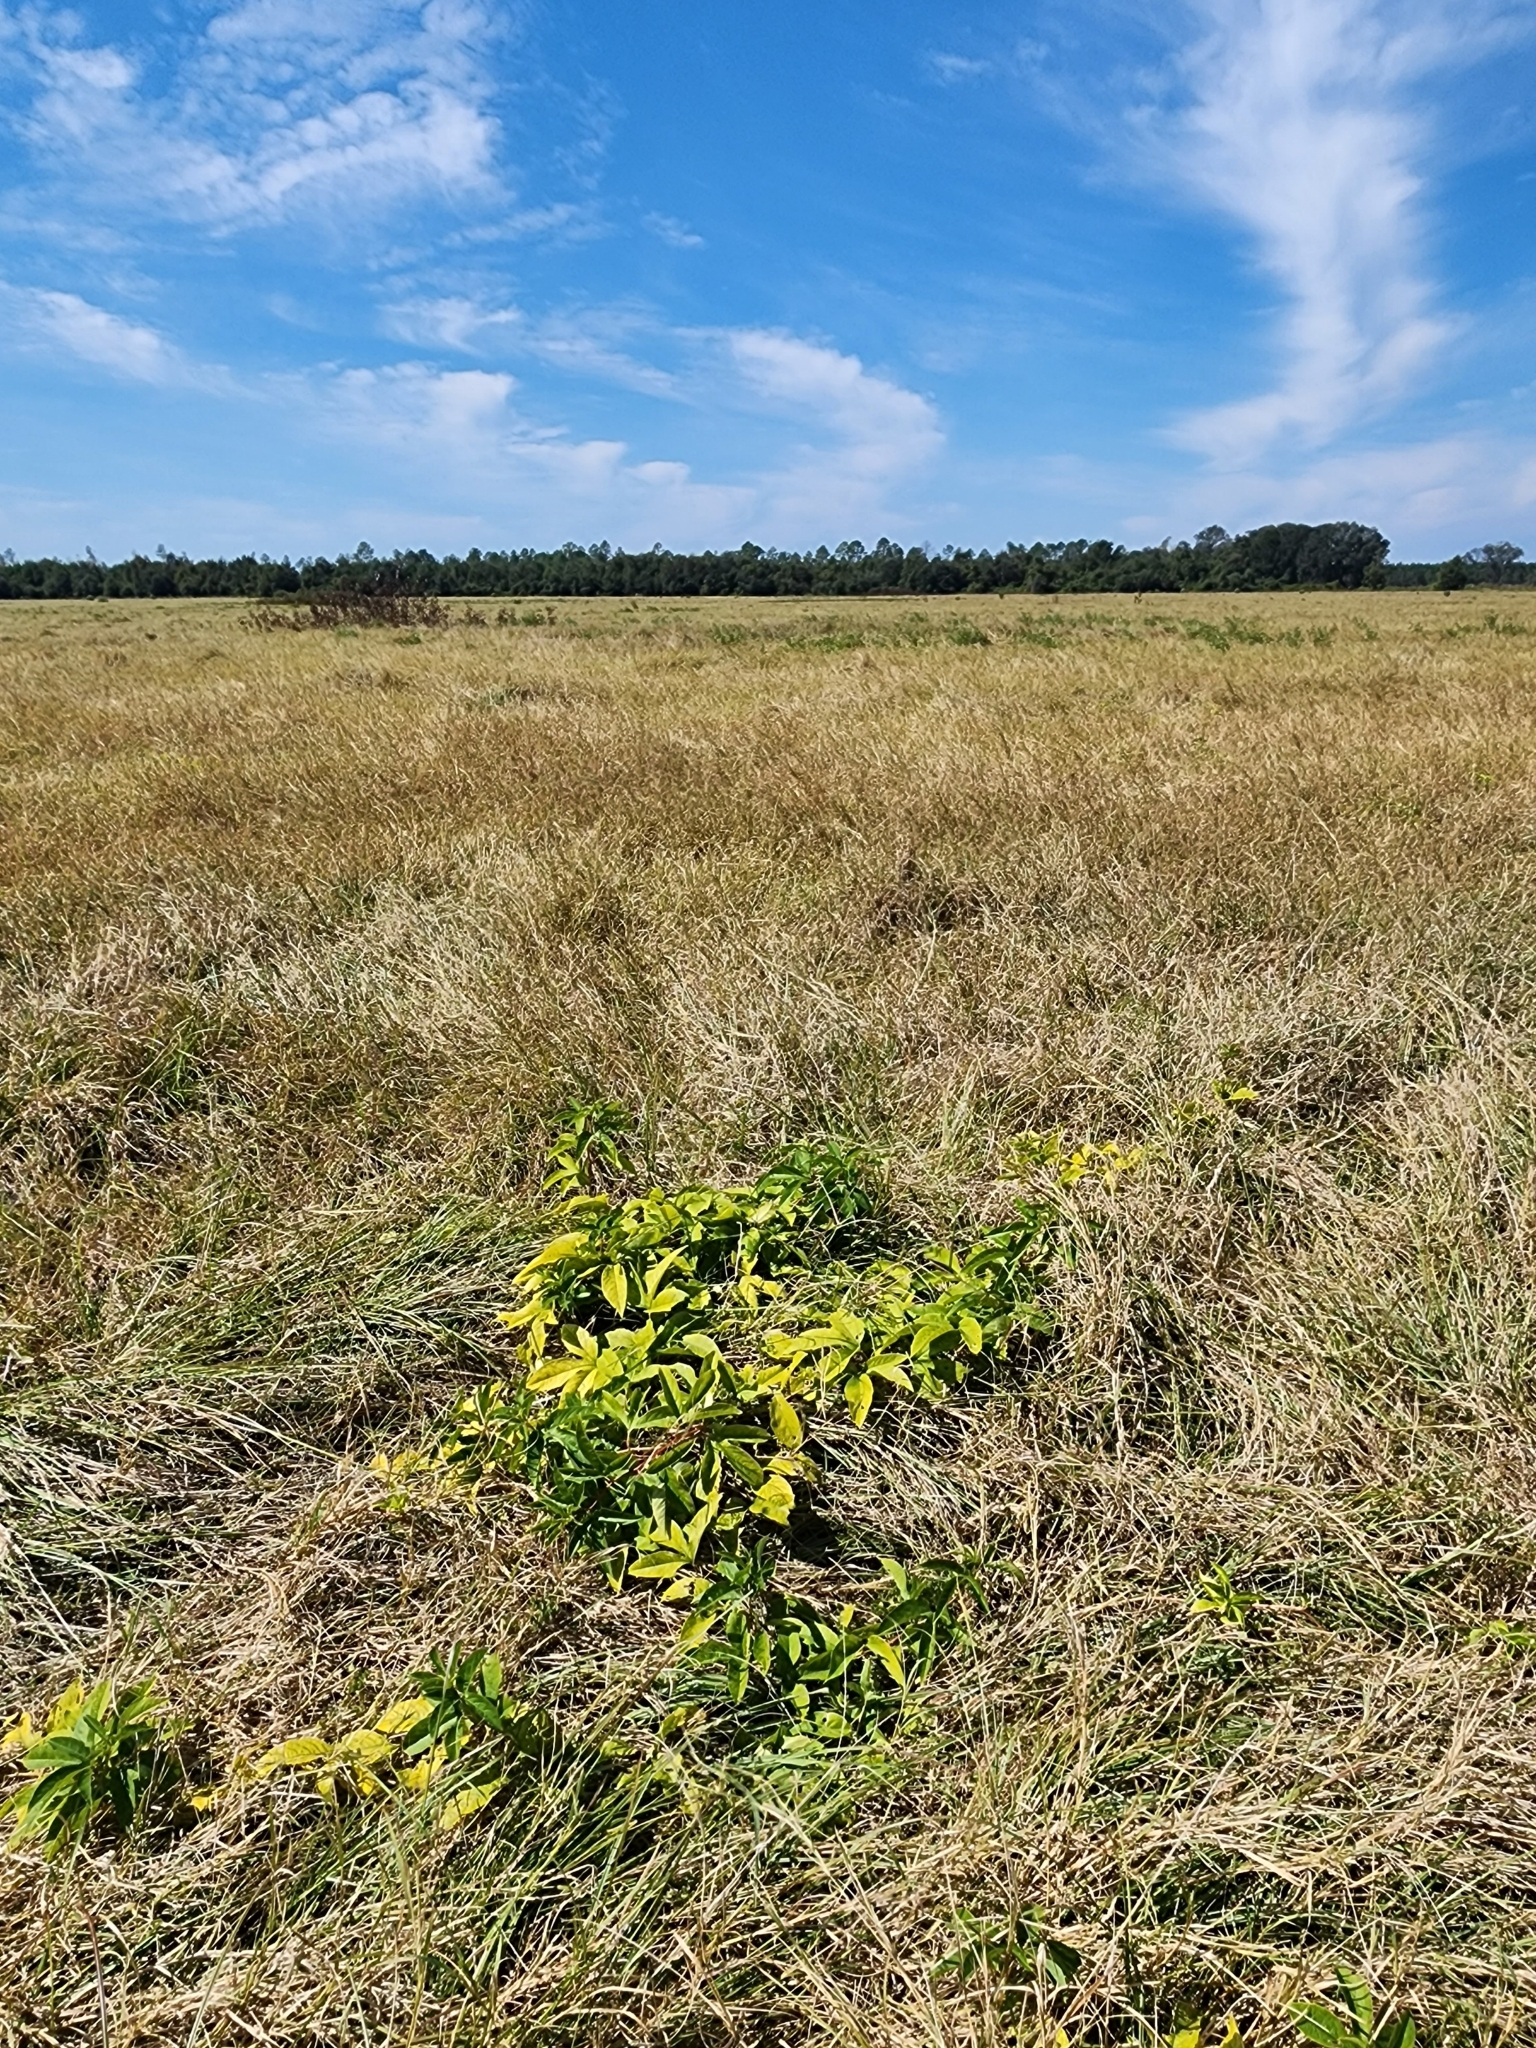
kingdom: Plantae
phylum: Tracheophyta
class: Magnoliopsida
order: Malpighiales
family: Passifloraceae
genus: Passiflora
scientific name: Passiflora incarnata
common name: Apricot-vine
